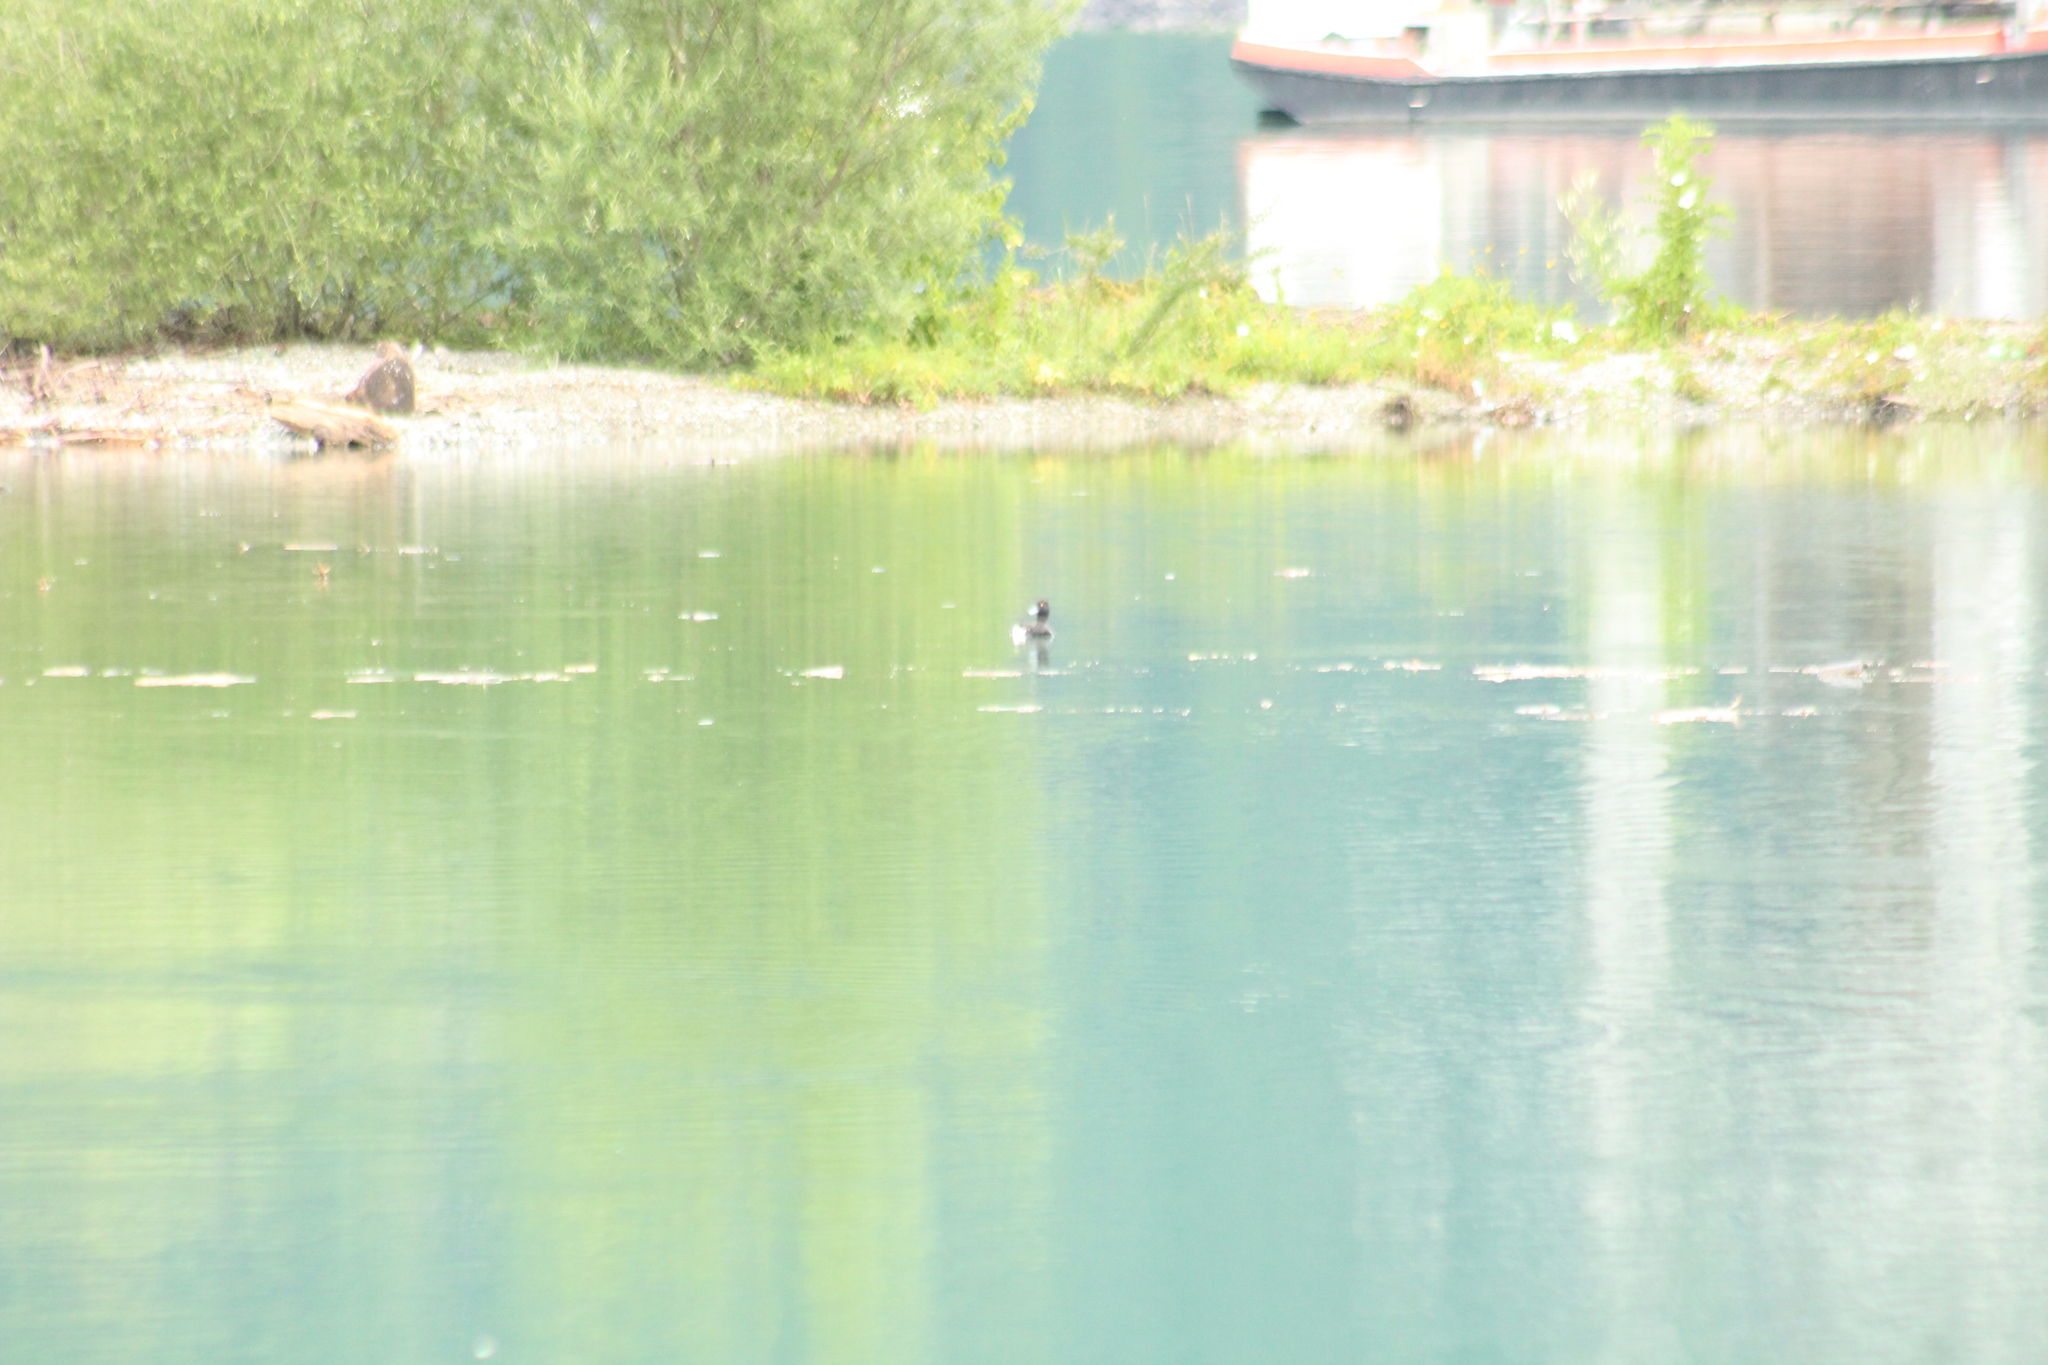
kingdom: Animalia
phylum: Chordata
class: Aves
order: Anseriformes
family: Anatidae
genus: Aythya
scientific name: Aythya fuligula
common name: Tufted duck
